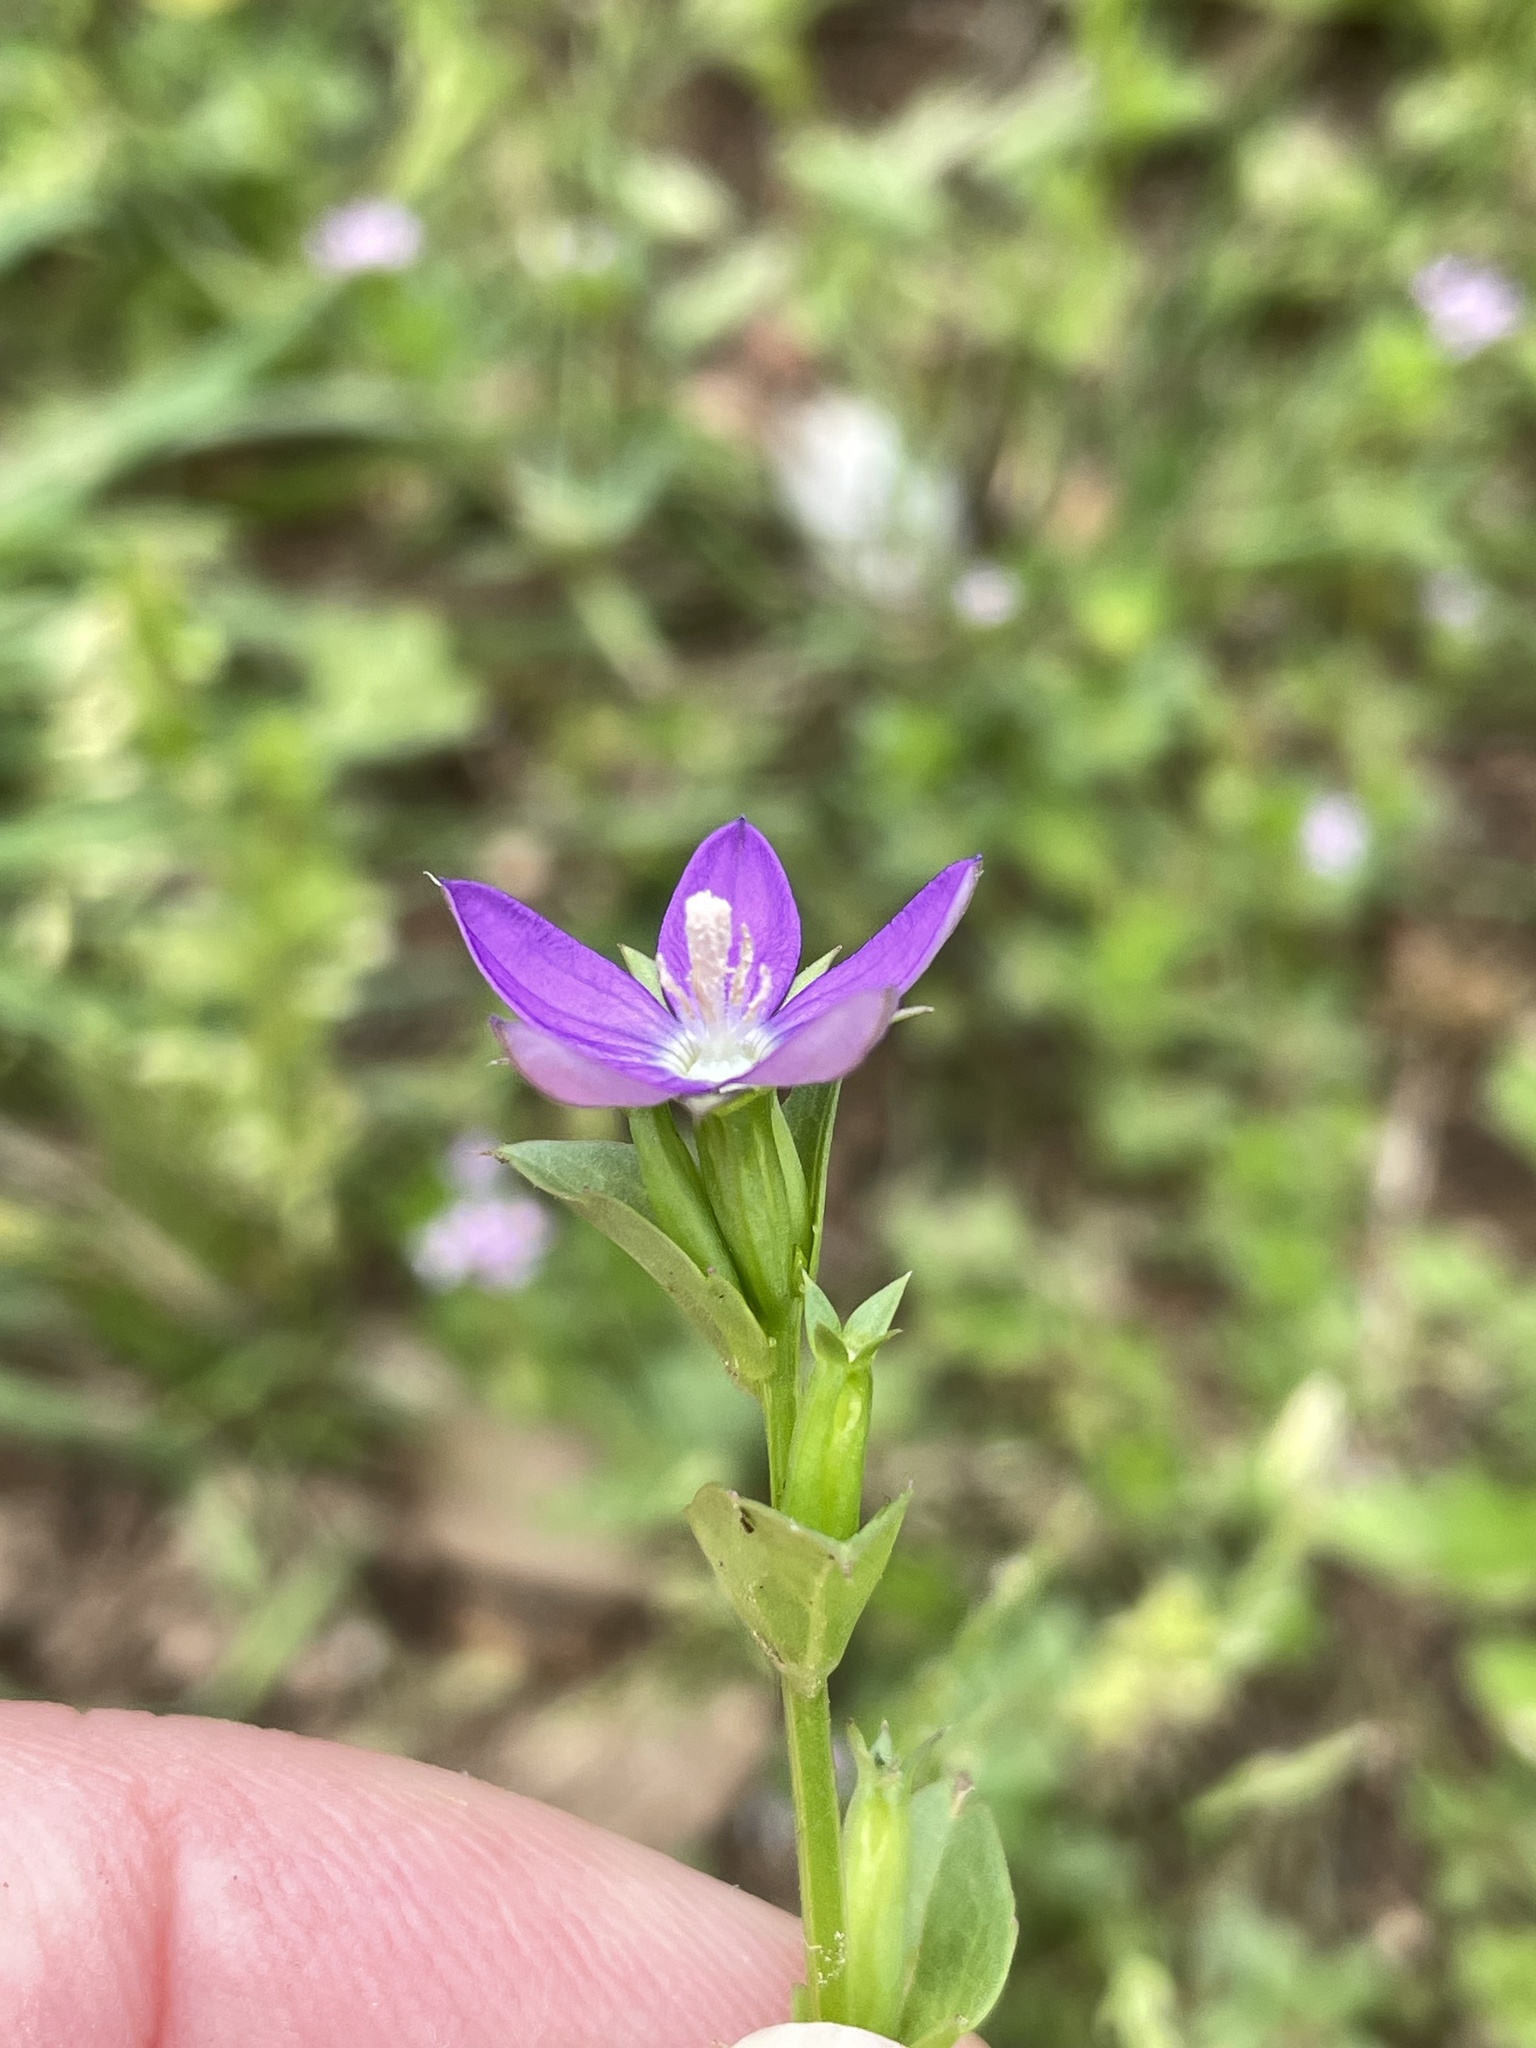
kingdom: Plantae
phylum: Tracheophyta
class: Magnoliopsida
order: Asterales
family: Campanulaceae
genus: Triodanis
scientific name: Triodanis biflora
